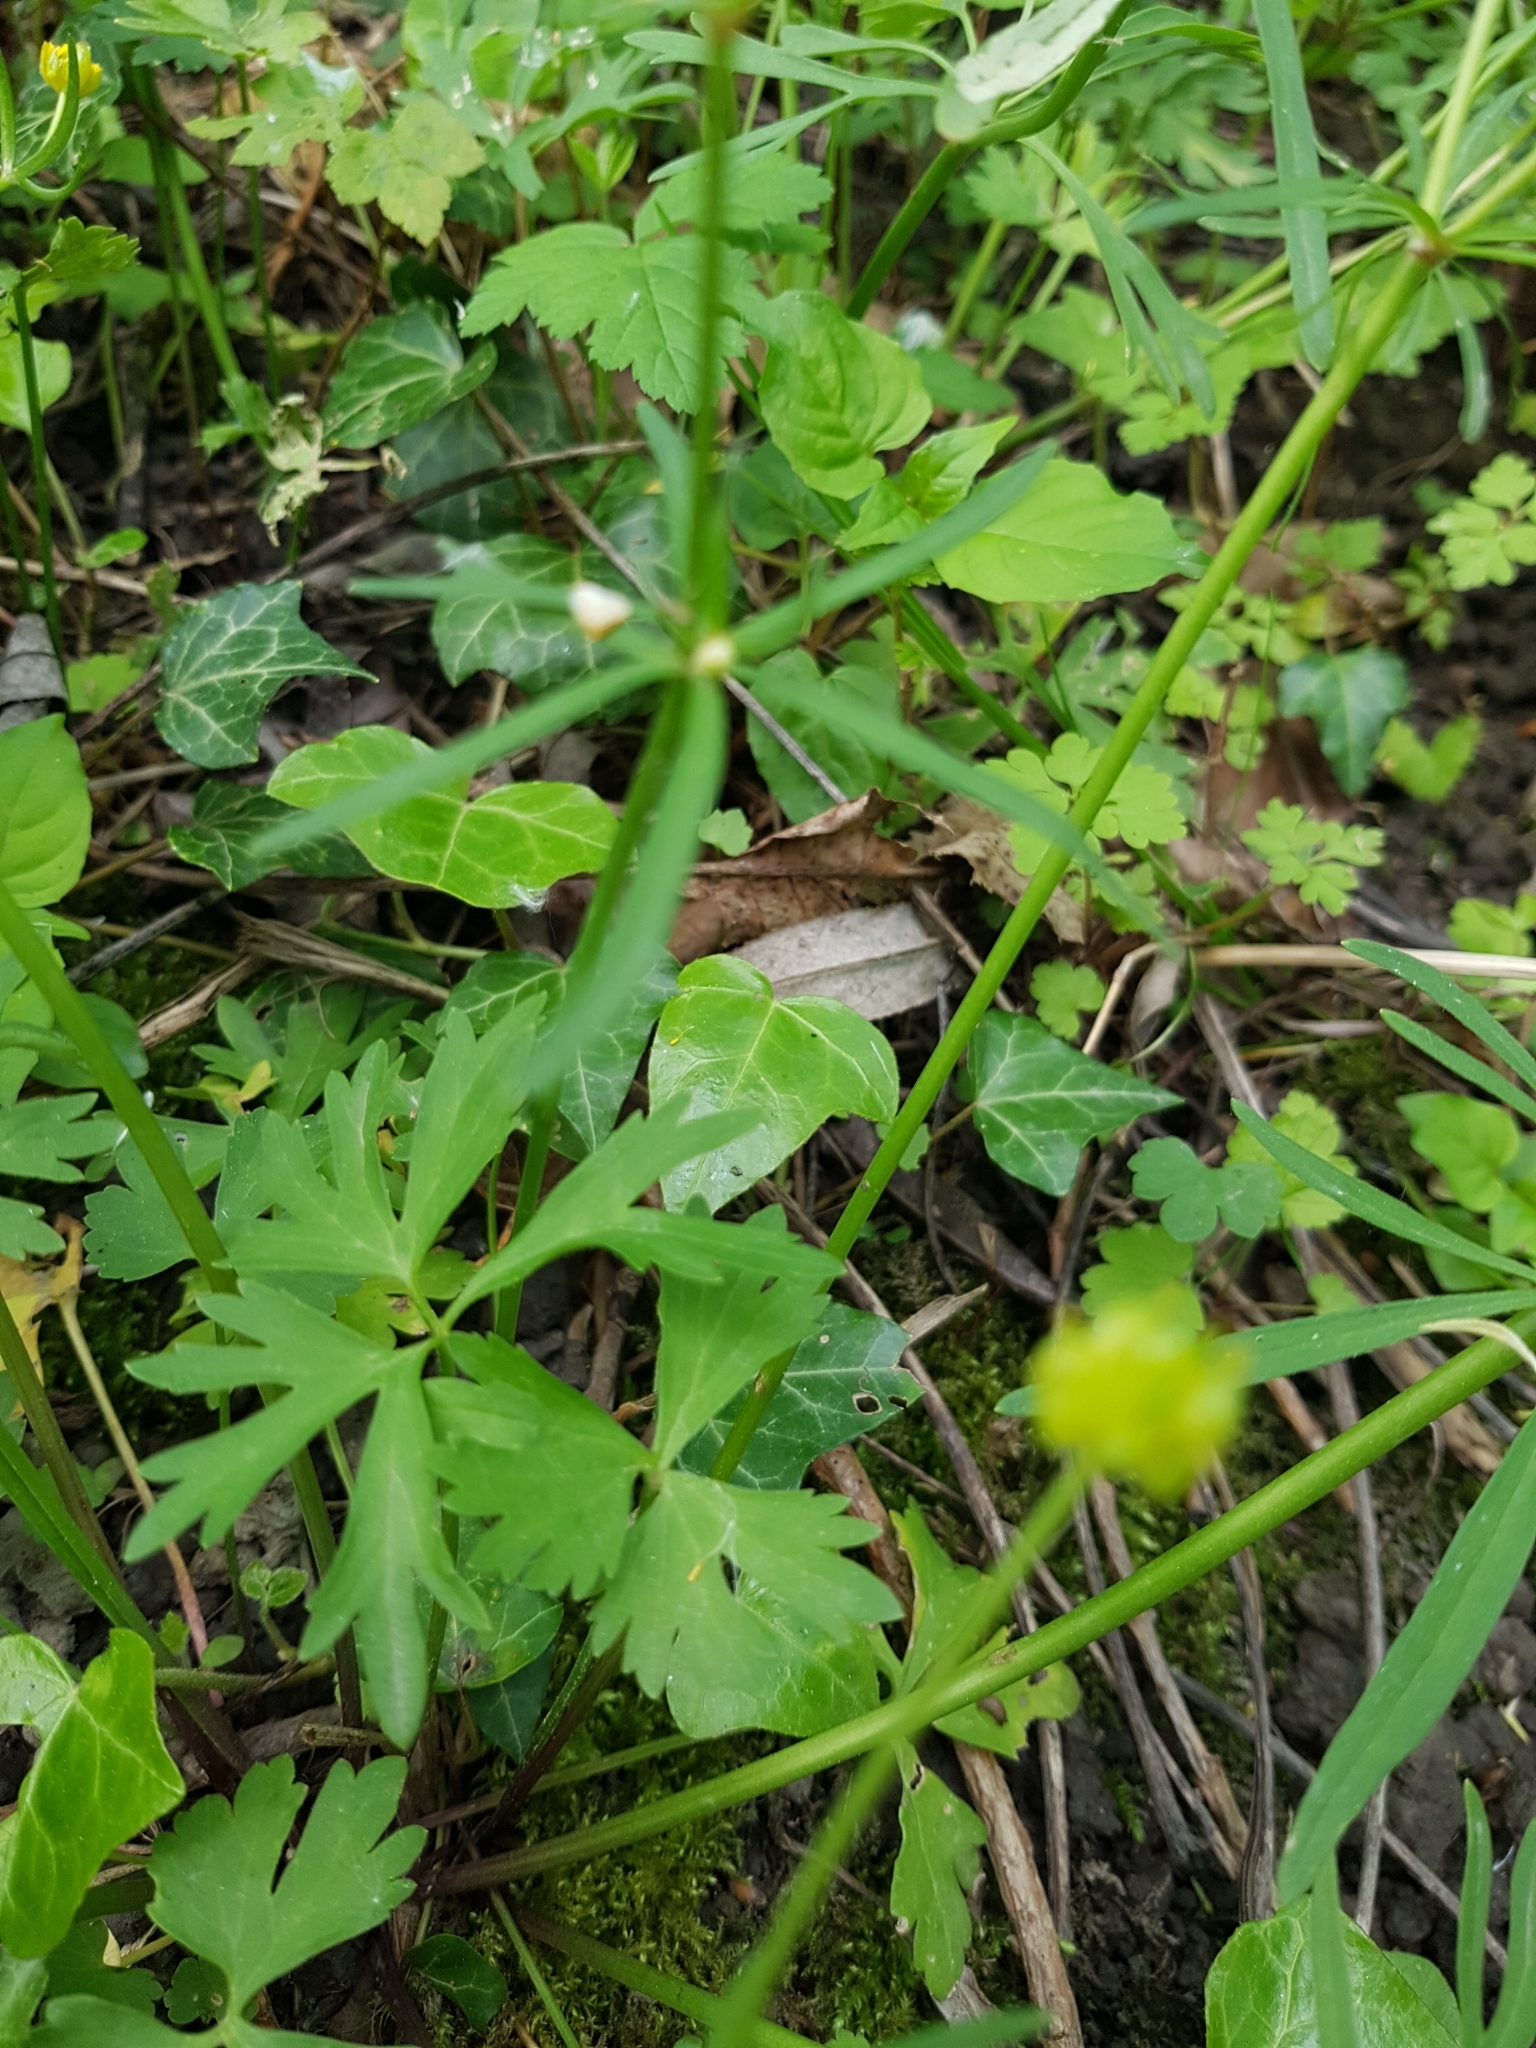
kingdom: Plantae
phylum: Tracheophyta
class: Magnoliopsida
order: Ranunculales
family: Ranunculaceae
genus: Ranunculus
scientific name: Ranunculus auricomus
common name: Goldilocks buttercup
